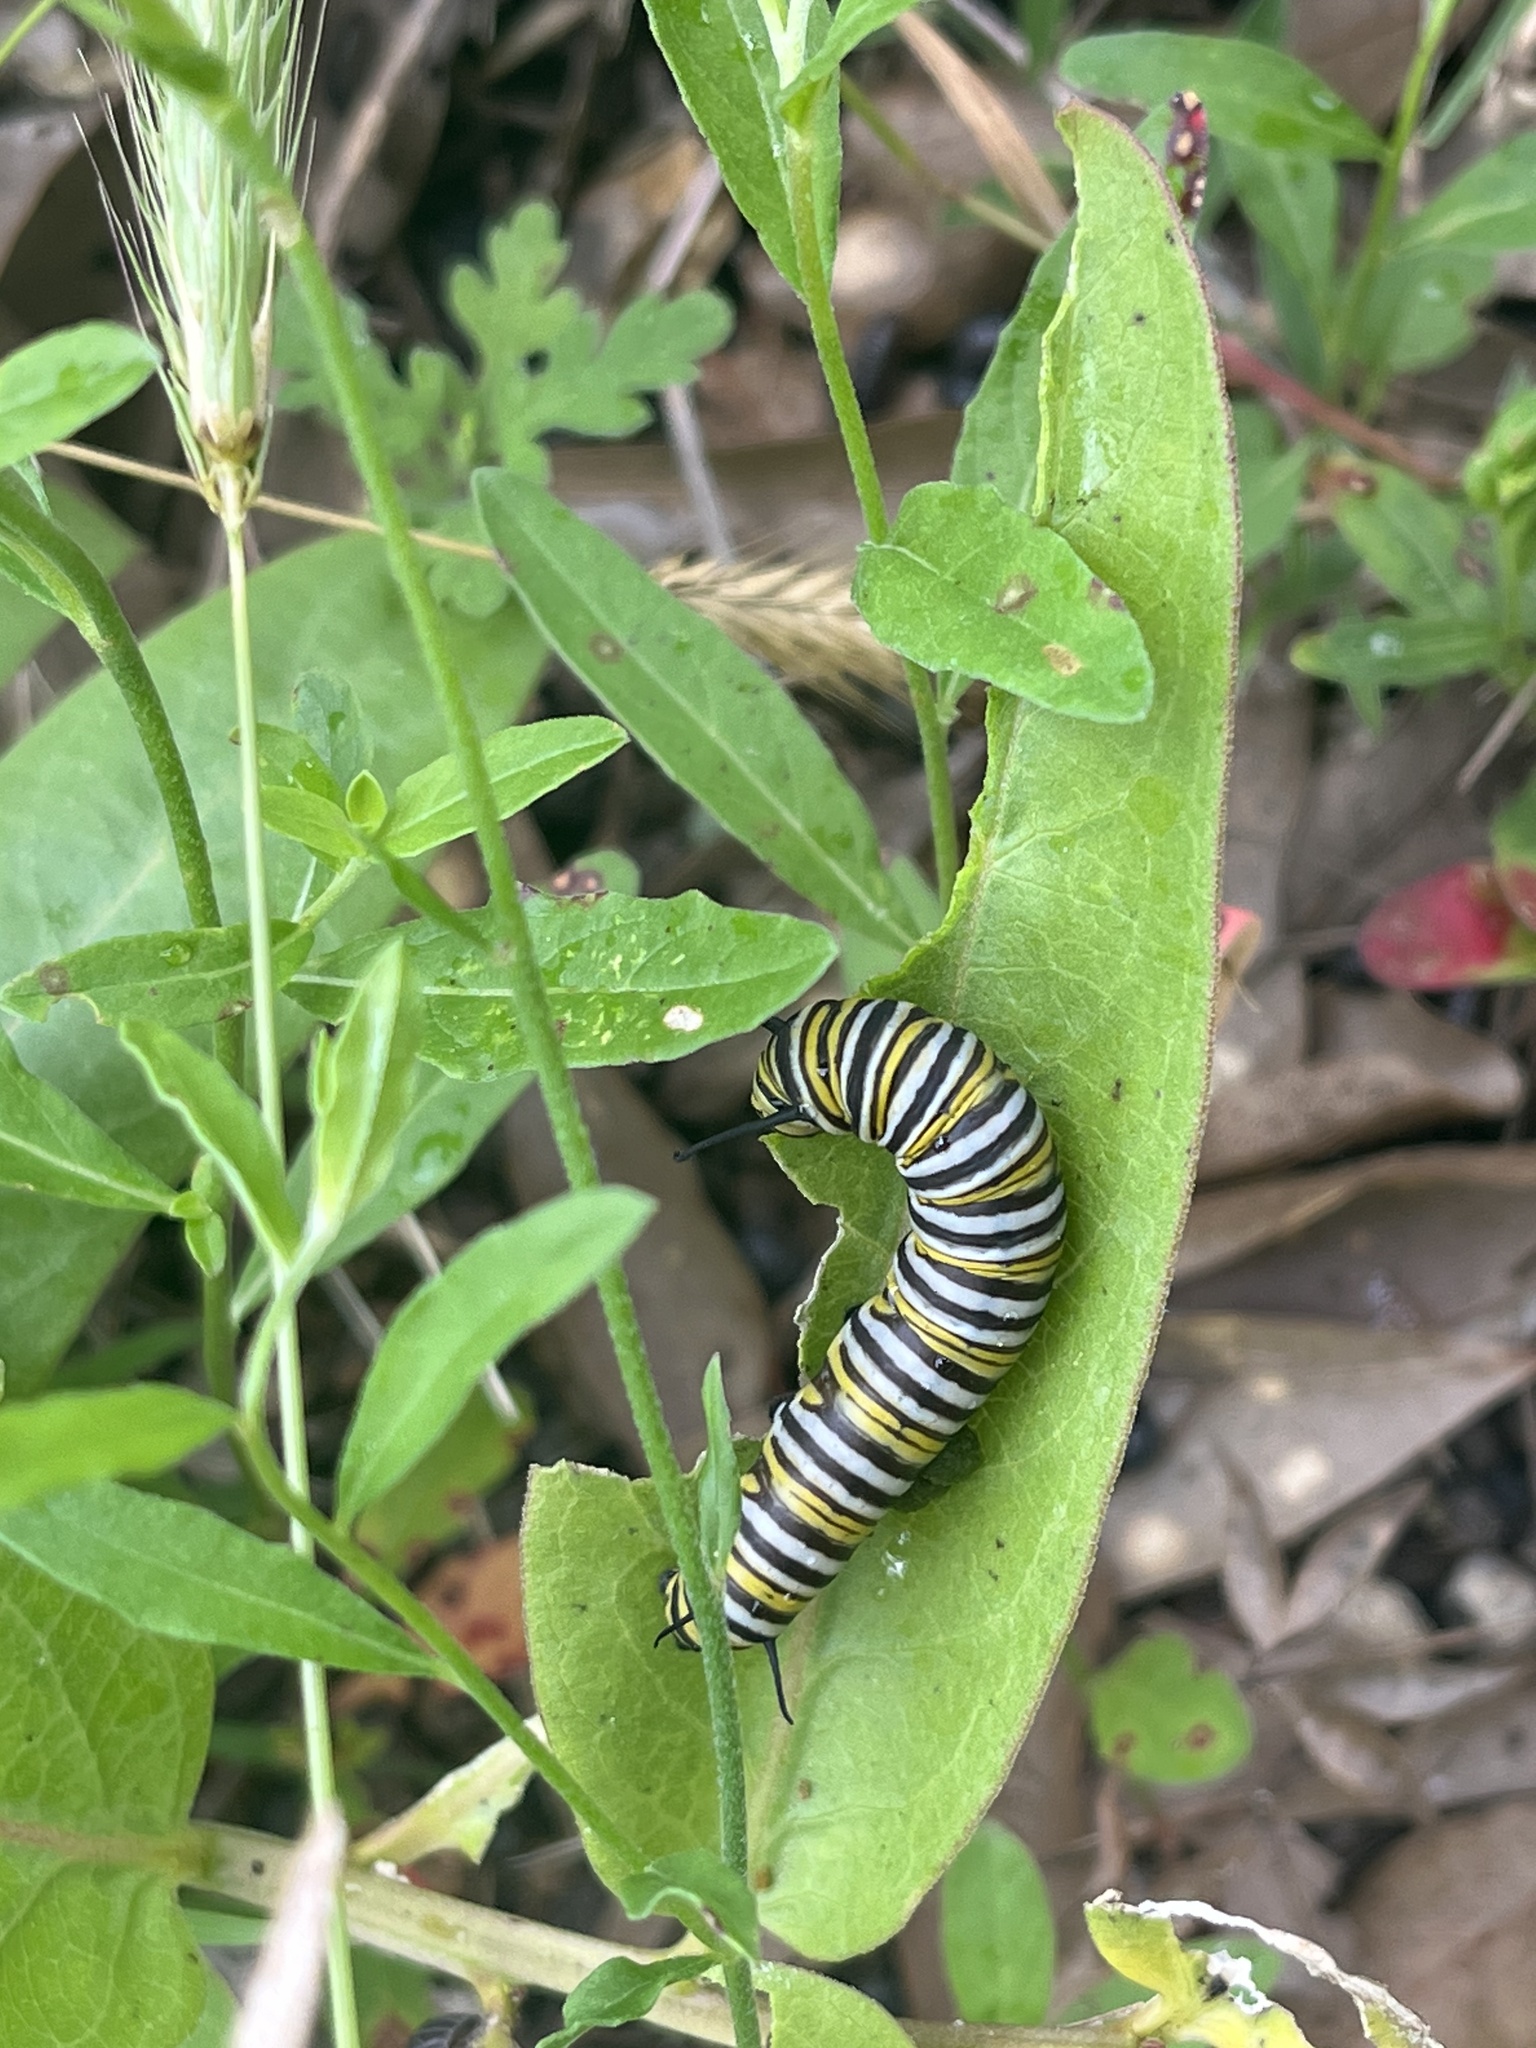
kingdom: Animalia
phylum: Arthropoda
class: Insecta
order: Lepidoptera
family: Nymphalidae
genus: Danaus
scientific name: Danaus plexippus
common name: Monarch
